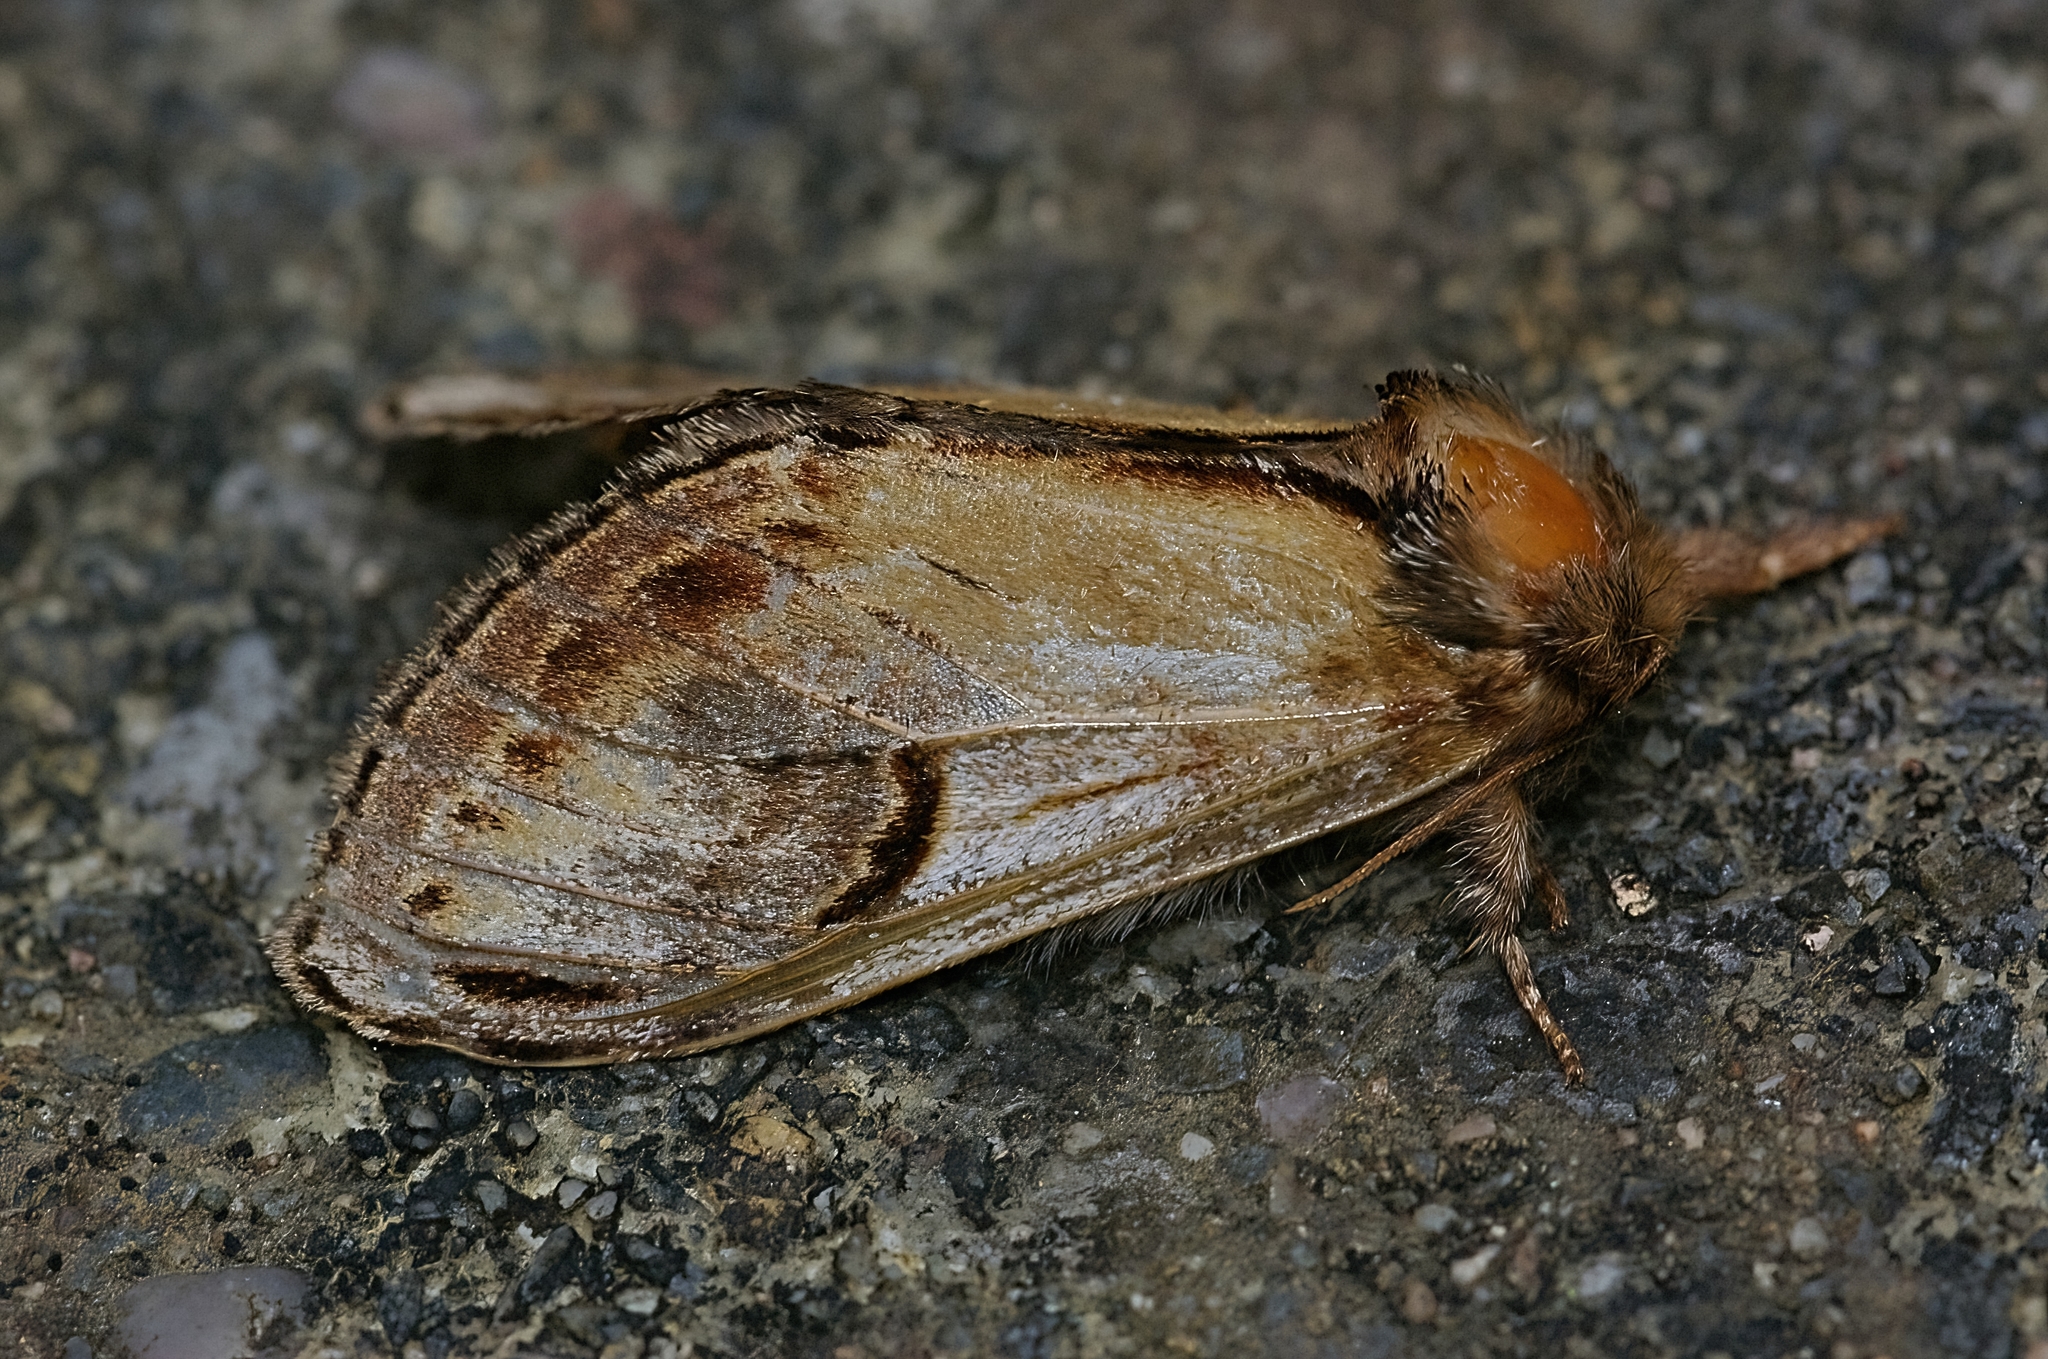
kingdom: Animalia
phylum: Arthropoda
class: Insecta
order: Lepidoptera
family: Notodontidae
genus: Notodonta
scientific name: Notodonta ziczac
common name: Pebble prominent
